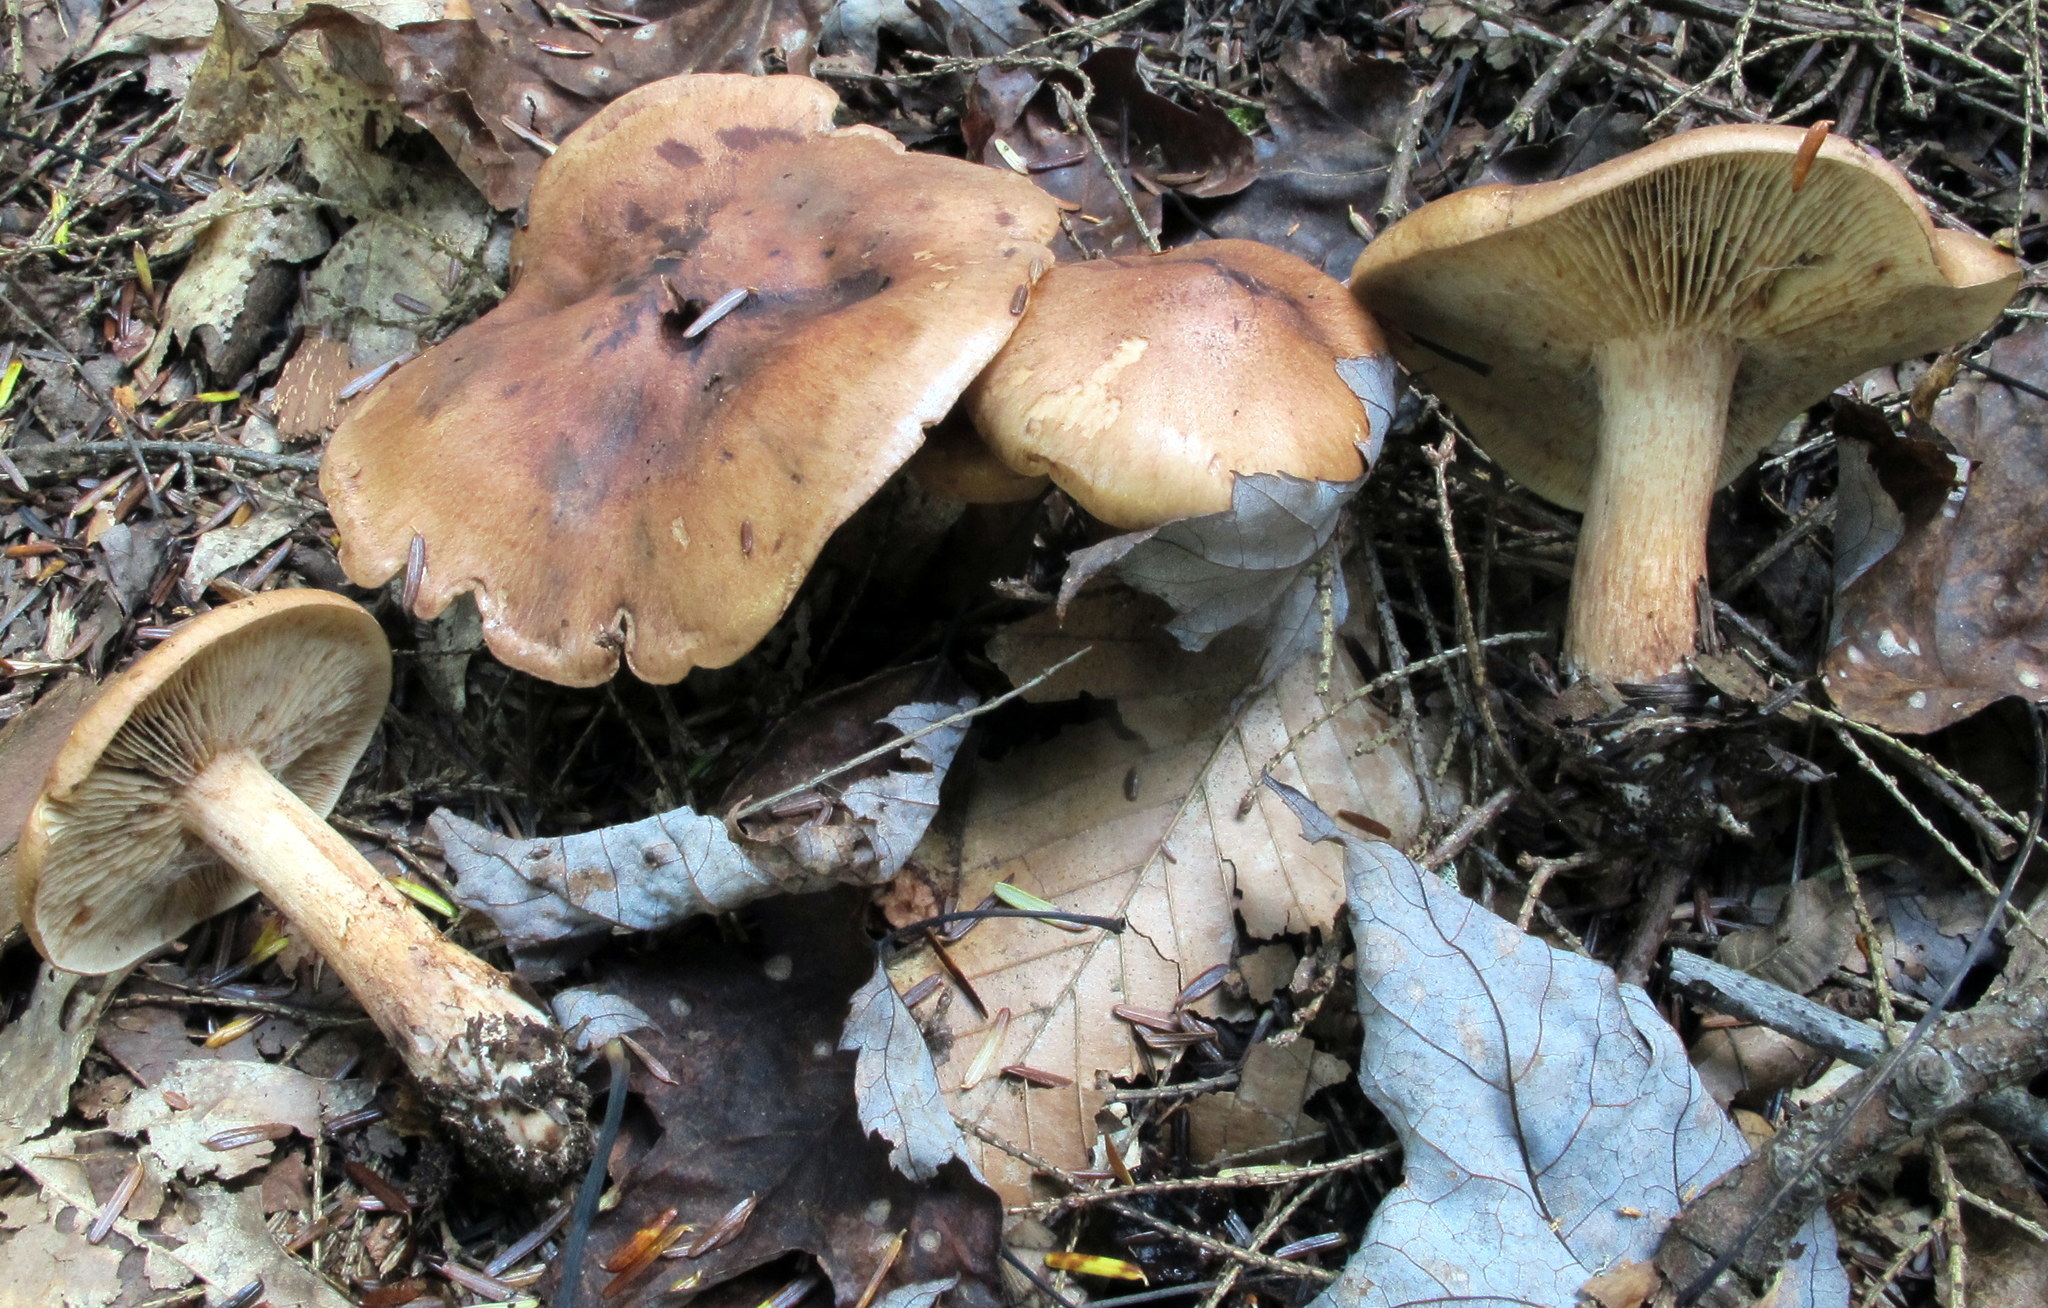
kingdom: Fungi
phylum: Basidiomycota
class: Agaricomycetes
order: Agaricales
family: Tricholomataceae
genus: Tricholoma
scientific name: Tricholoma fulvum
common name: Birch knight
